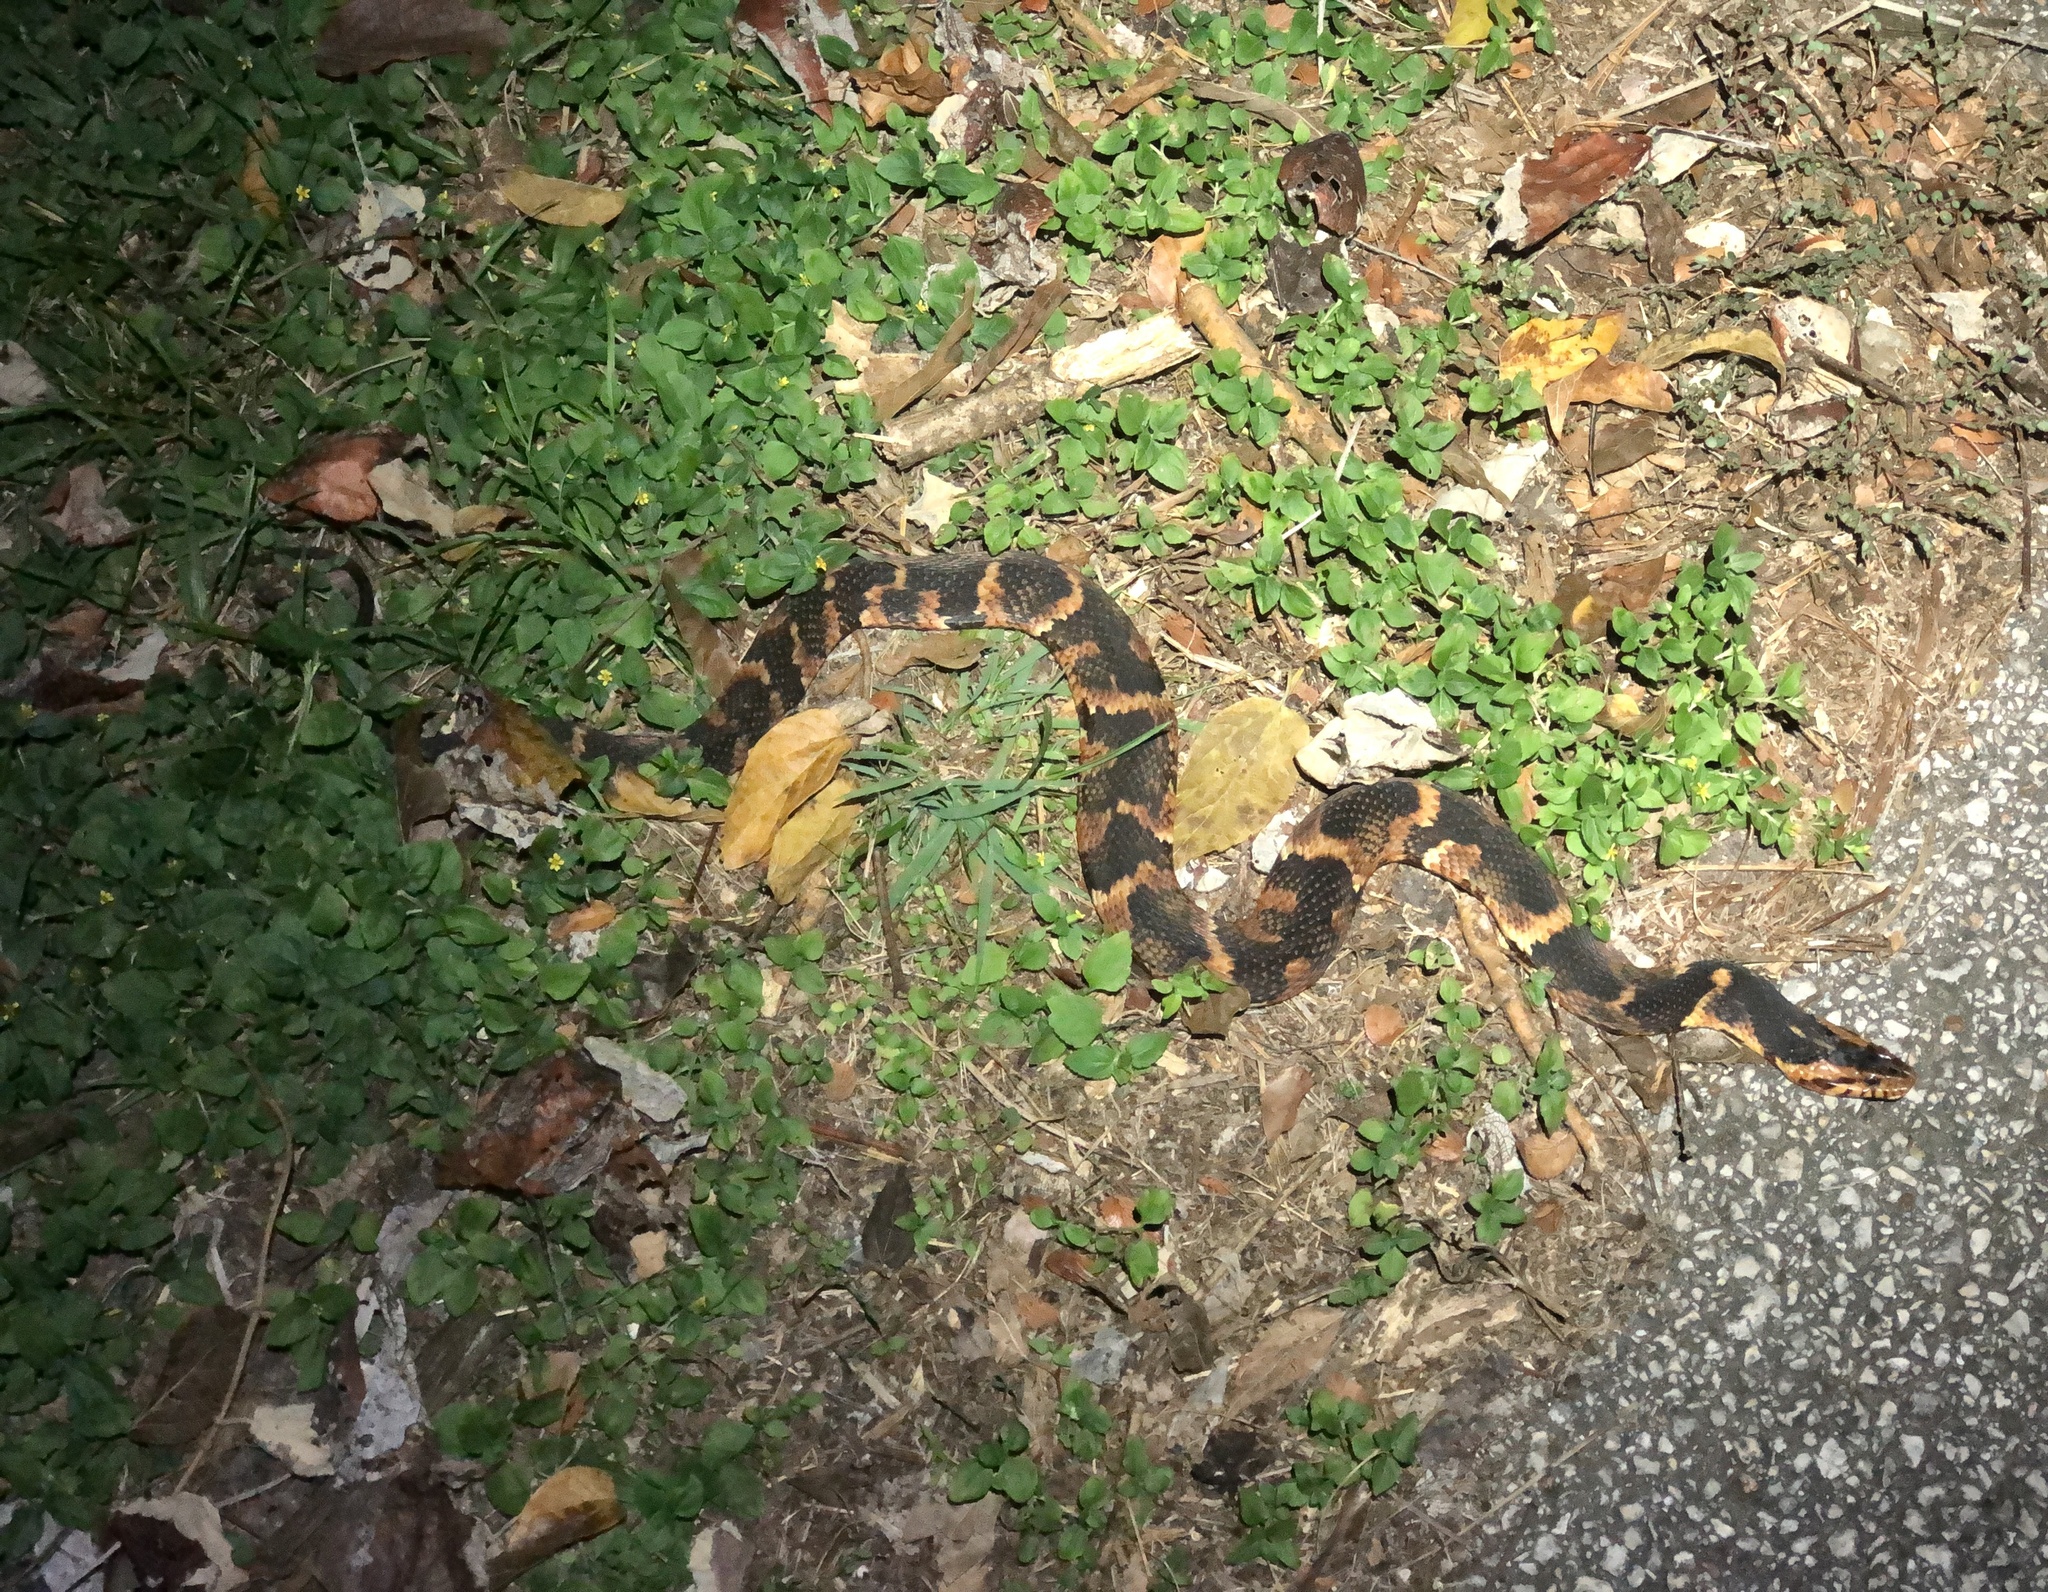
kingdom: Animalia
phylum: Chordata
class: Squamata
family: Colubridae
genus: Nerodia
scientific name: Nerodia fasciata
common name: Southern water snake
